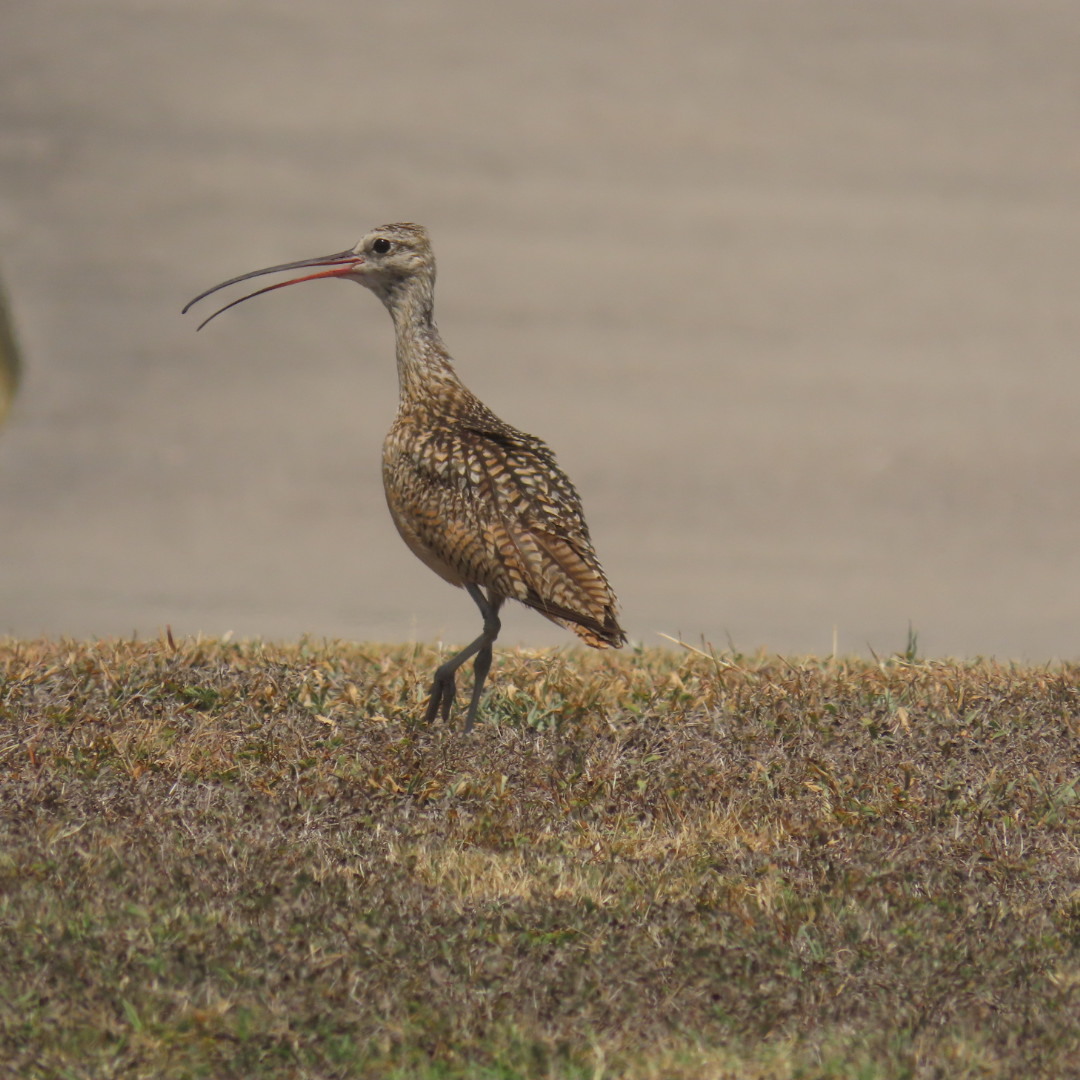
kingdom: Animalia
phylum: Chordata
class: Aves
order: Charadriiformes
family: Scolopacidae
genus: Numenius
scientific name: Numenius americanus
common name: Long-billed curlew
